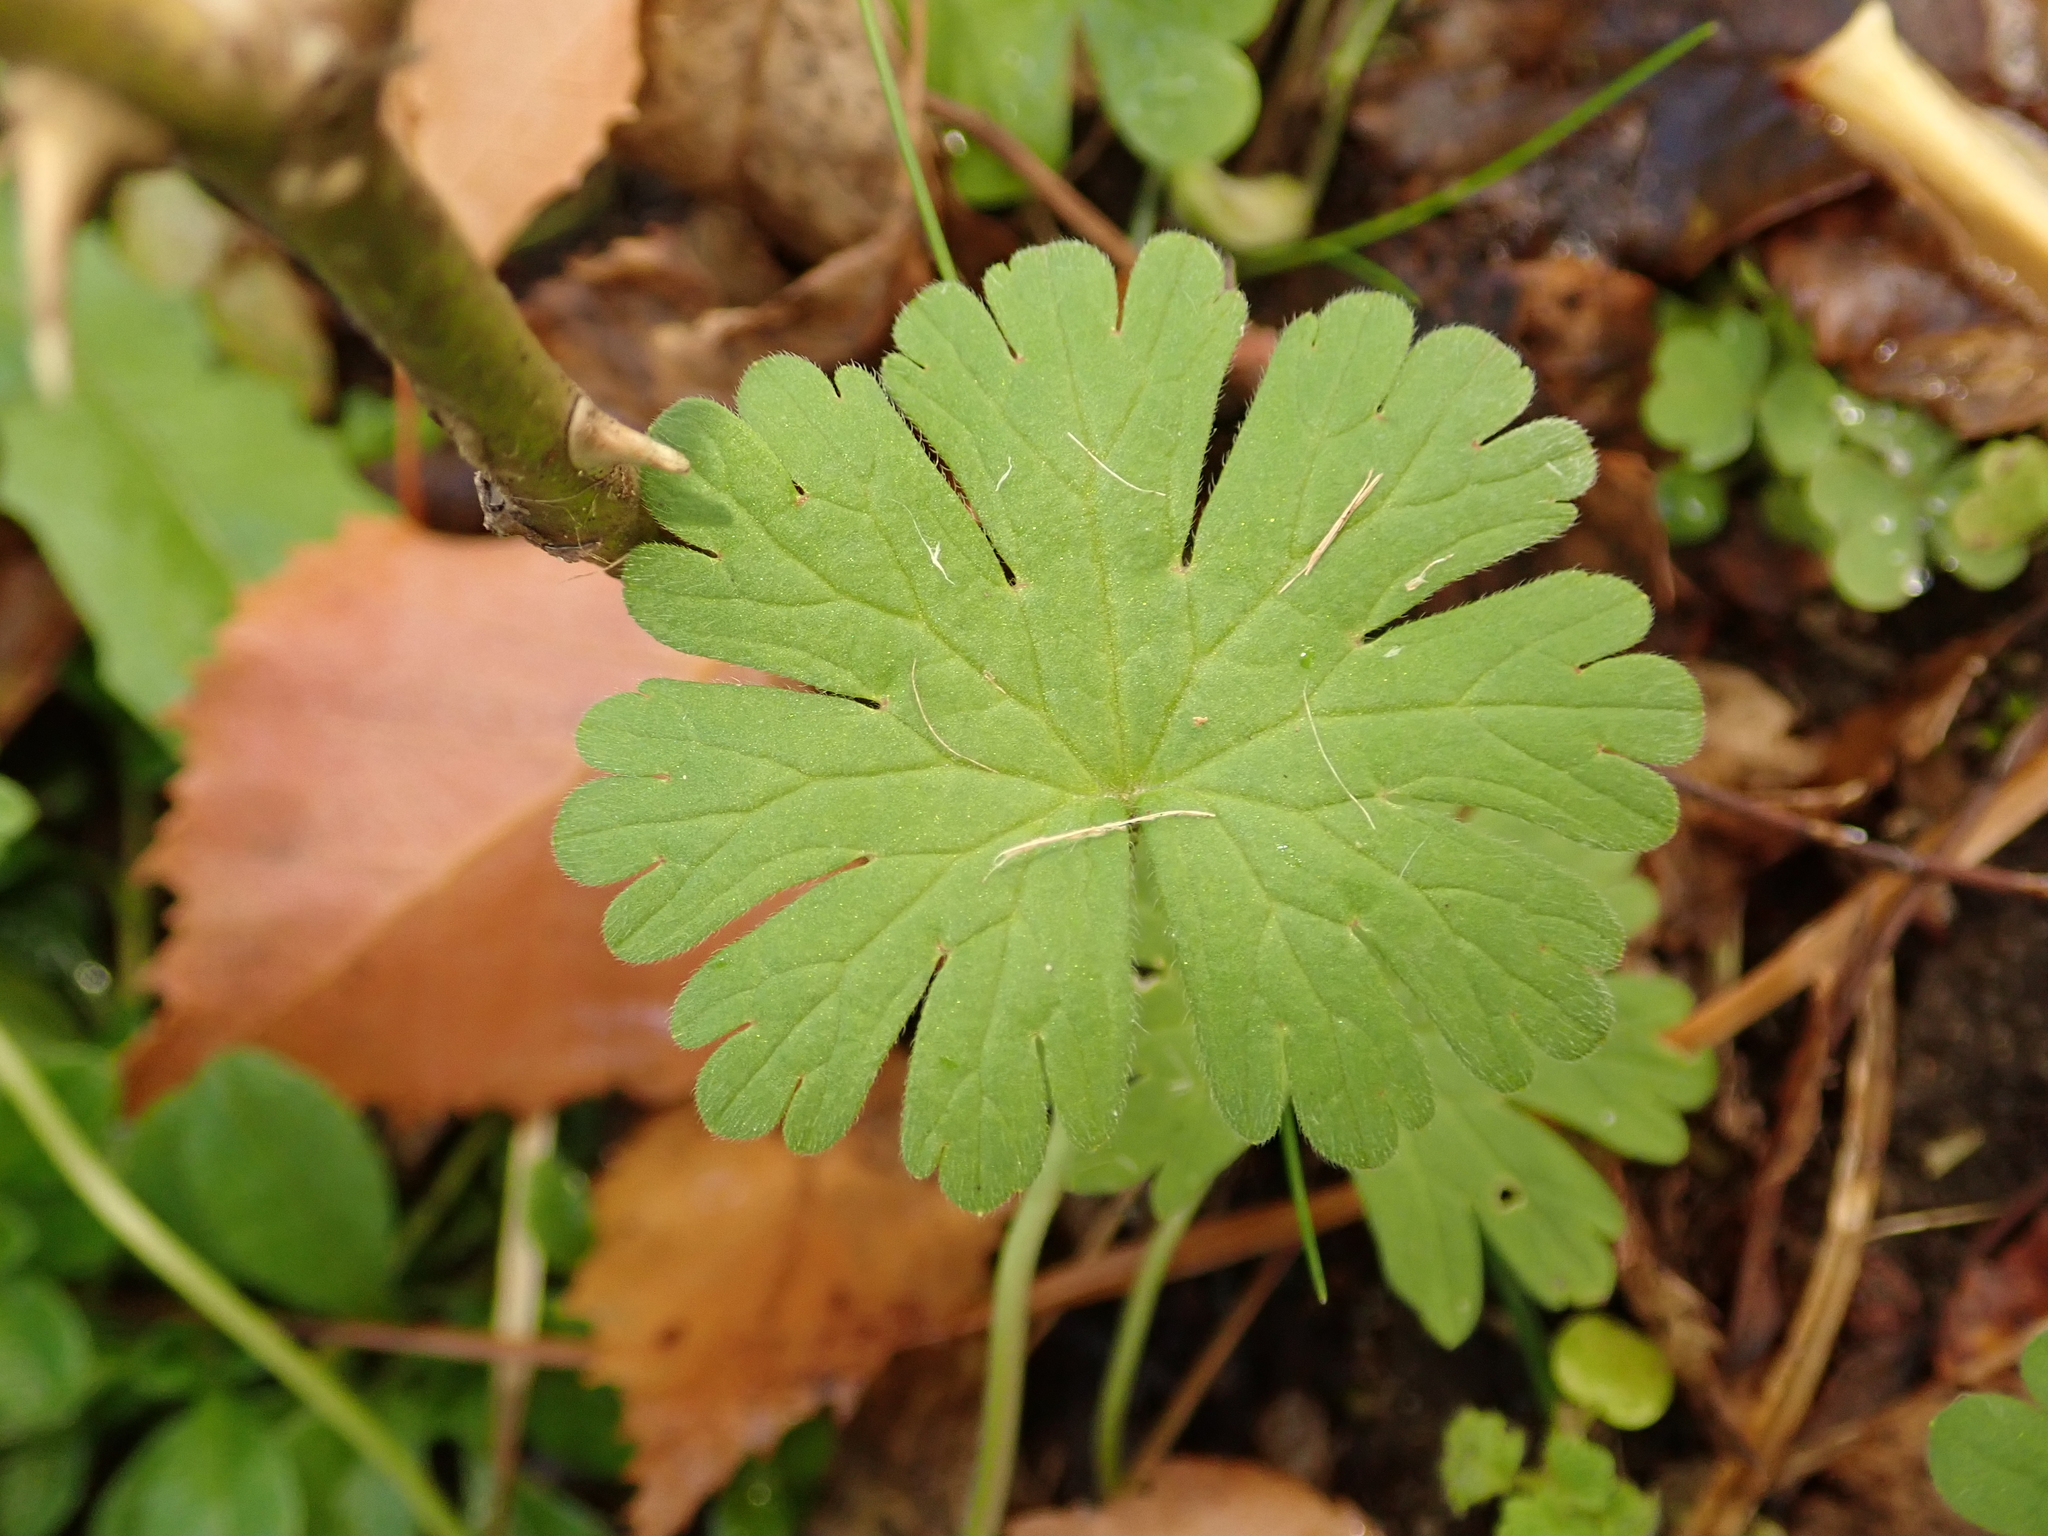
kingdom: Plantae
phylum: Tracheophyta
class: Magnoliopsida
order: Geraniales
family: Geraniaceae
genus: Geranium
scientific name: Geranium molle
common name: Dove's-foot crane's-bill
